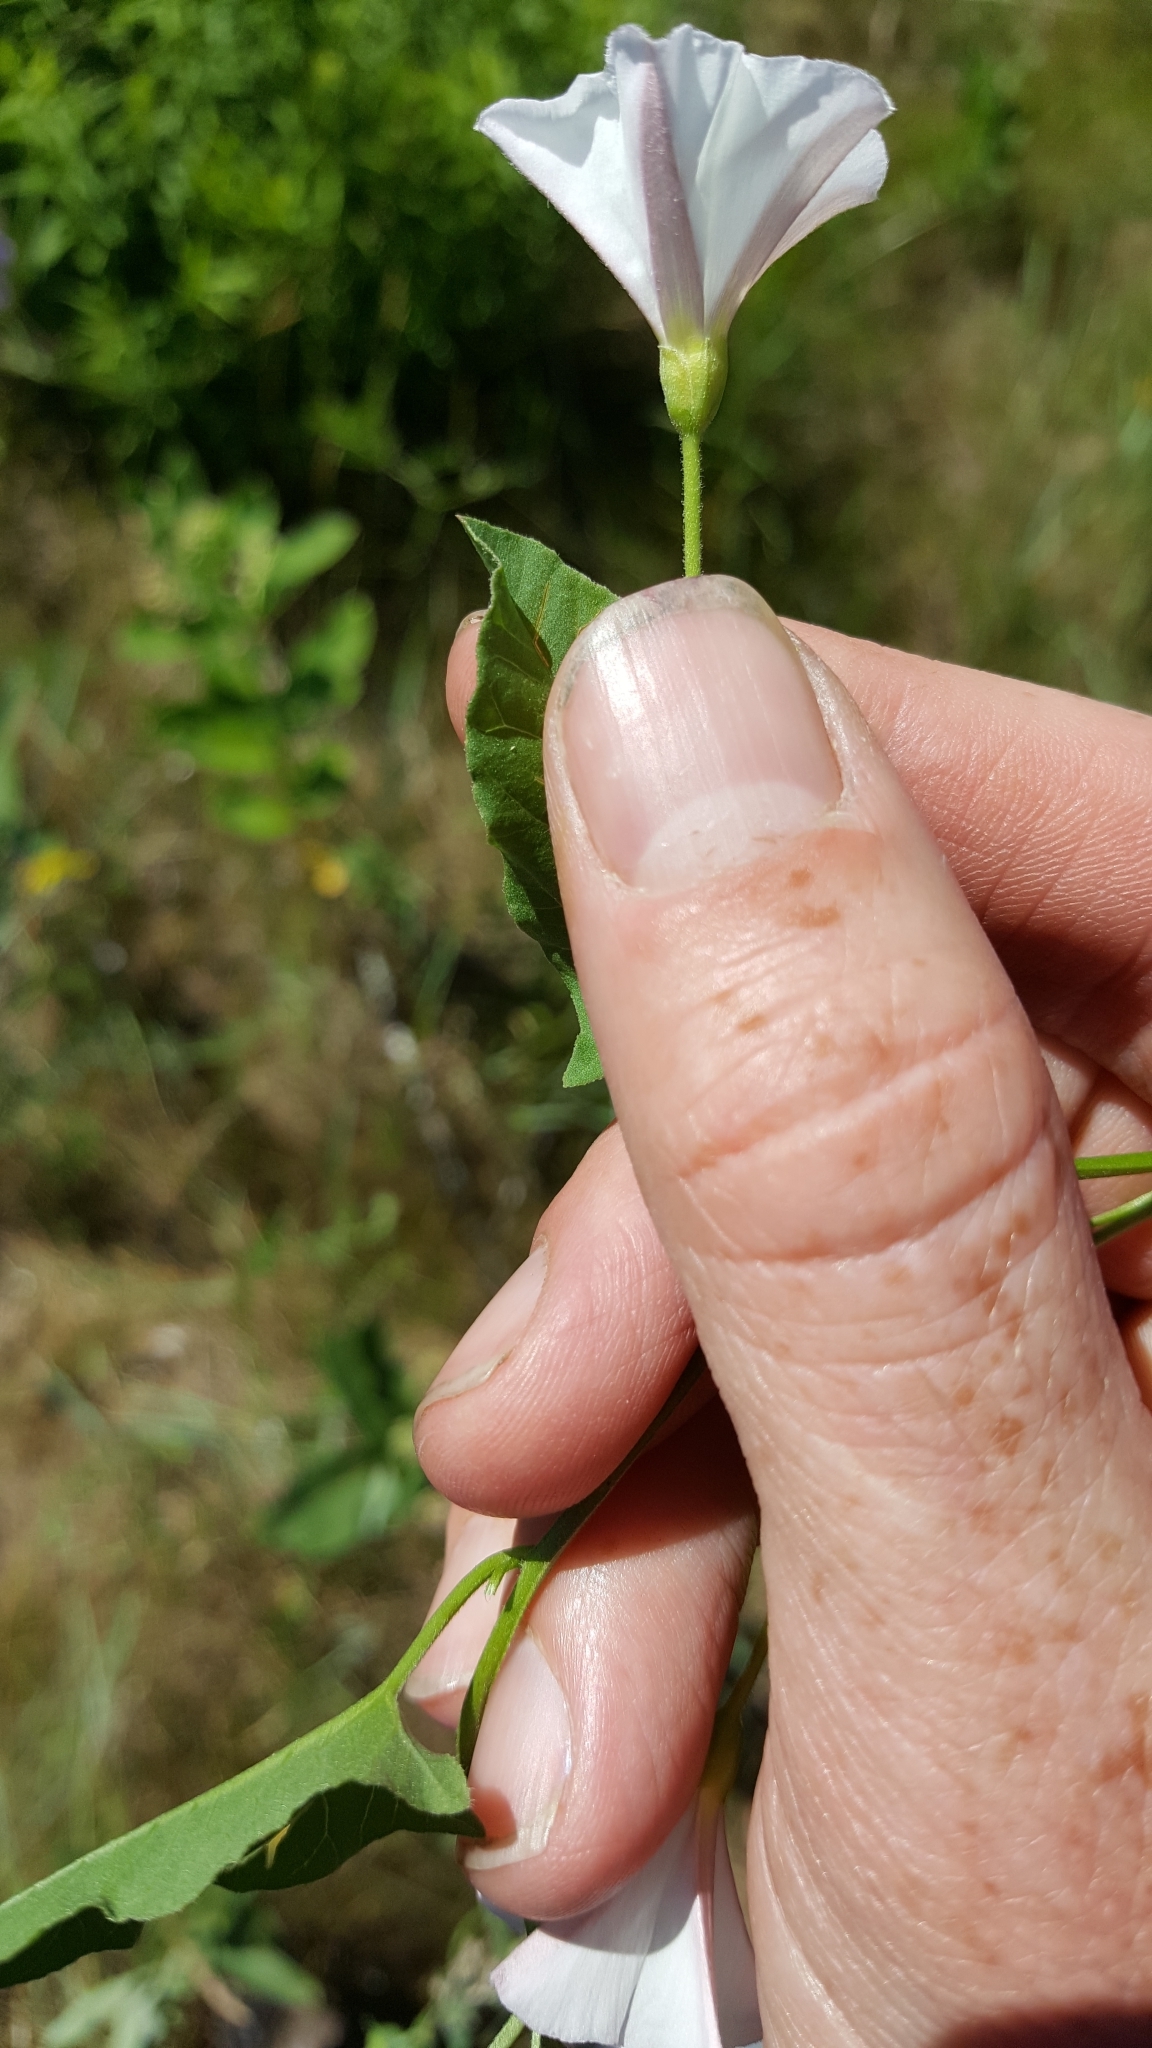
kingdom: Plantae
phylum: Tracheophyta
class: Magnoliopsida
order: Solanales
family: Convolvulaceae
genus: Convolvulus
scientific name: Convolvulus arvensis
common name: Field bindweed
